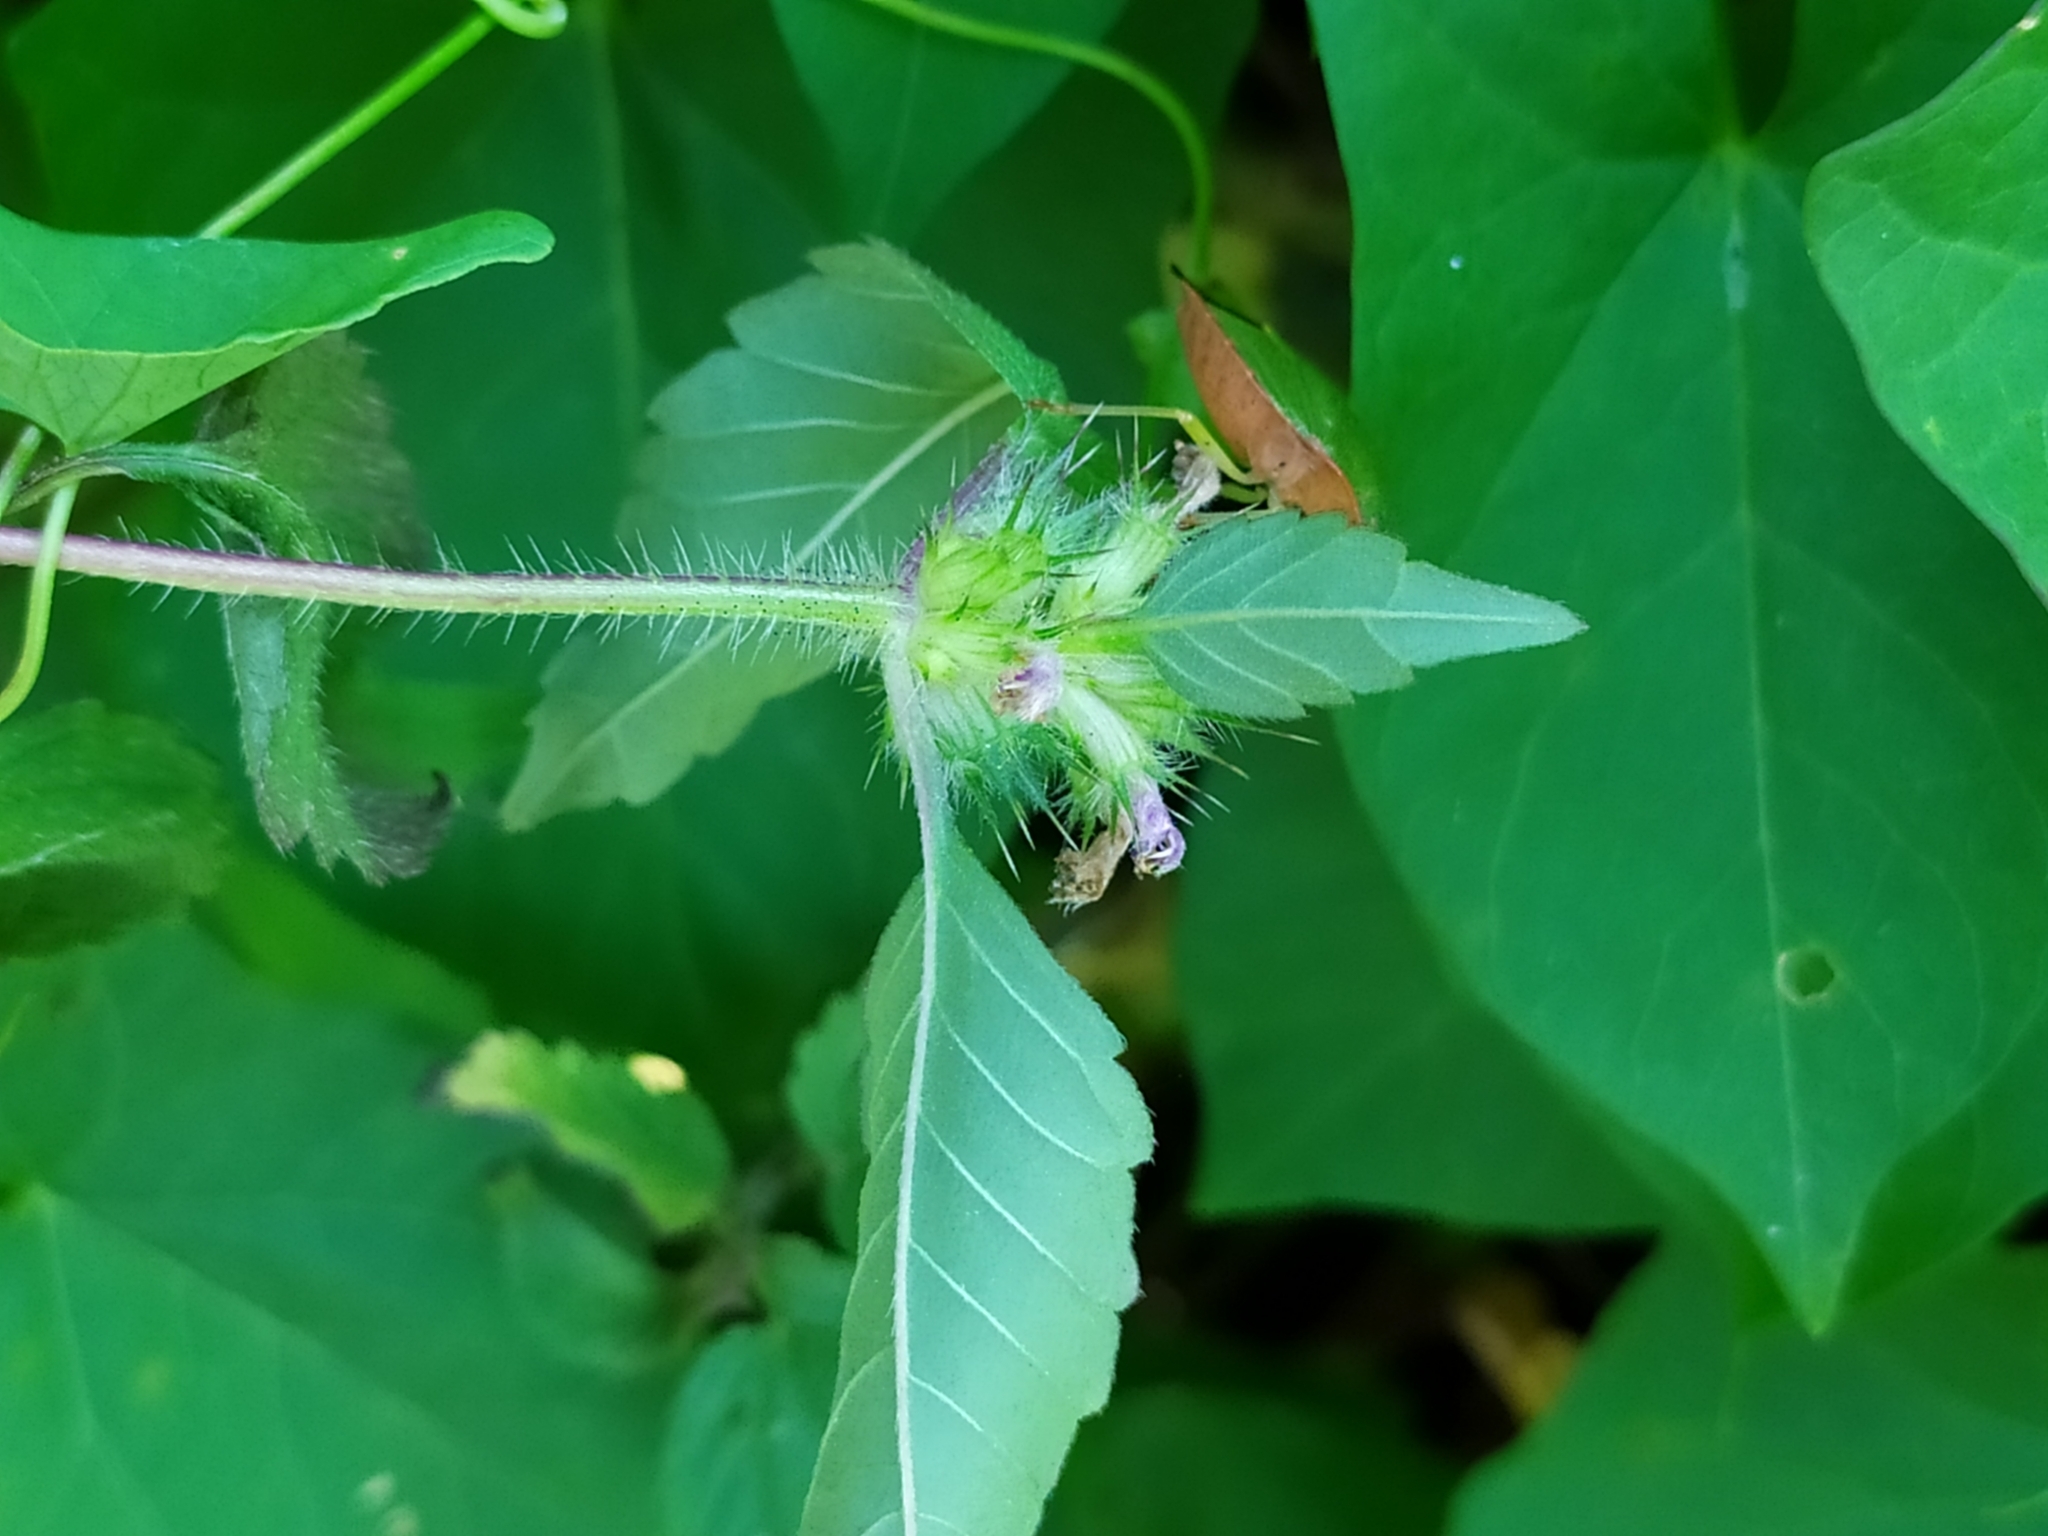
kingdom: Plantae
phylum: Tracheophyta
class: Magnoliopsida
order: Lamiales
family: Lamiaceae
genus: Galeopsis
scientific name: Galeopsis tetrahit
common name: Common hemp-nettle
